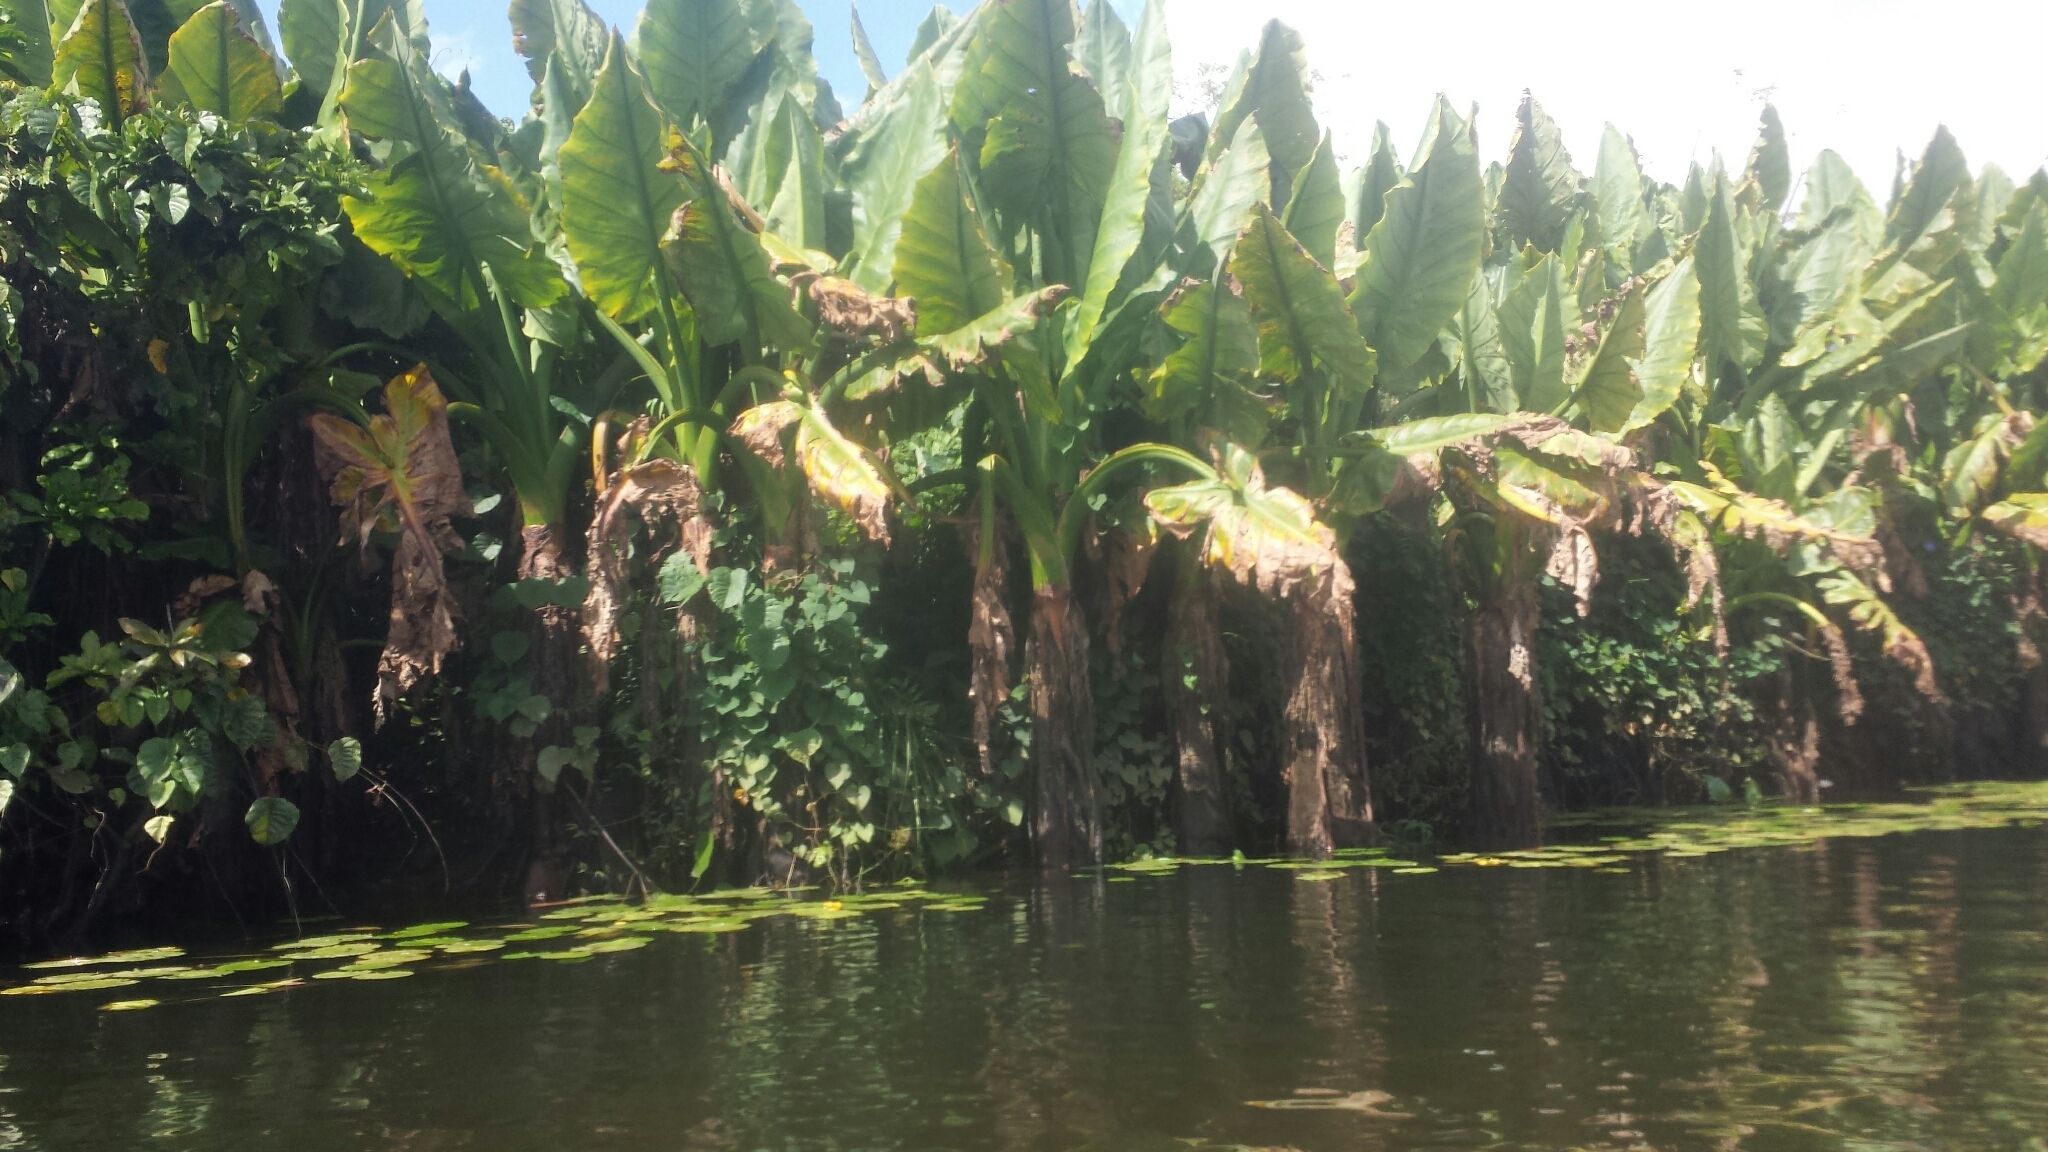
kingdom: Plantae
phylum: Tracheophyta
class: Liliopsida
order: Alismatales
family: Araceae
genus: Typhonodorum
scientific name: Typhonodorum lindleyanum
